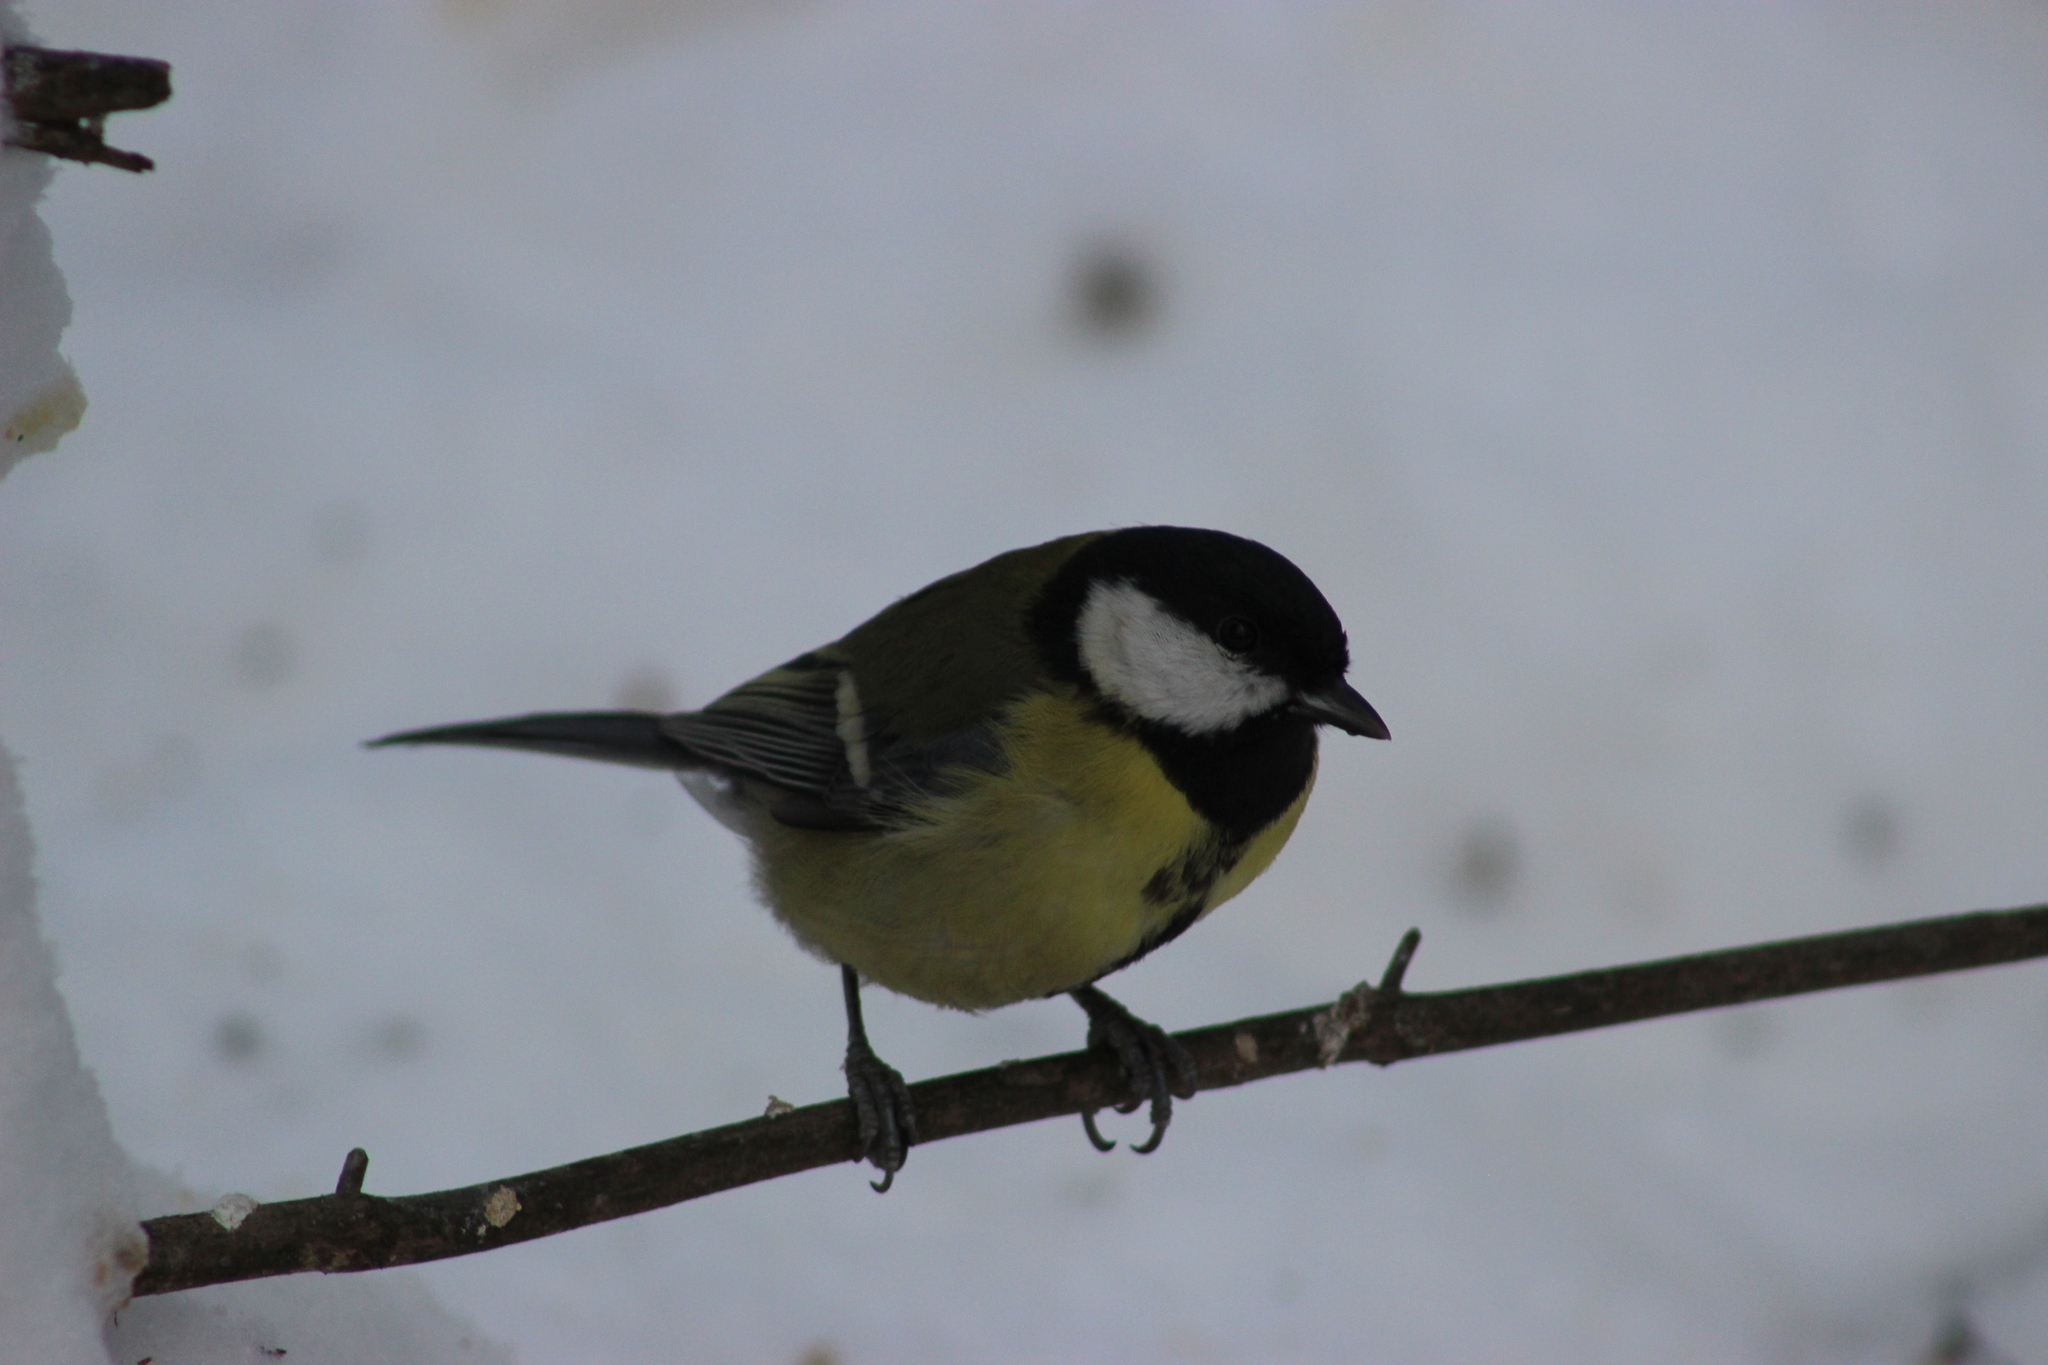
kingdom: Animalia
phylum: Chordata
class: Aves
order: Passeriformes
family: Paridae
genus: Parus
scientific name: Parus major
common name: Great tit
